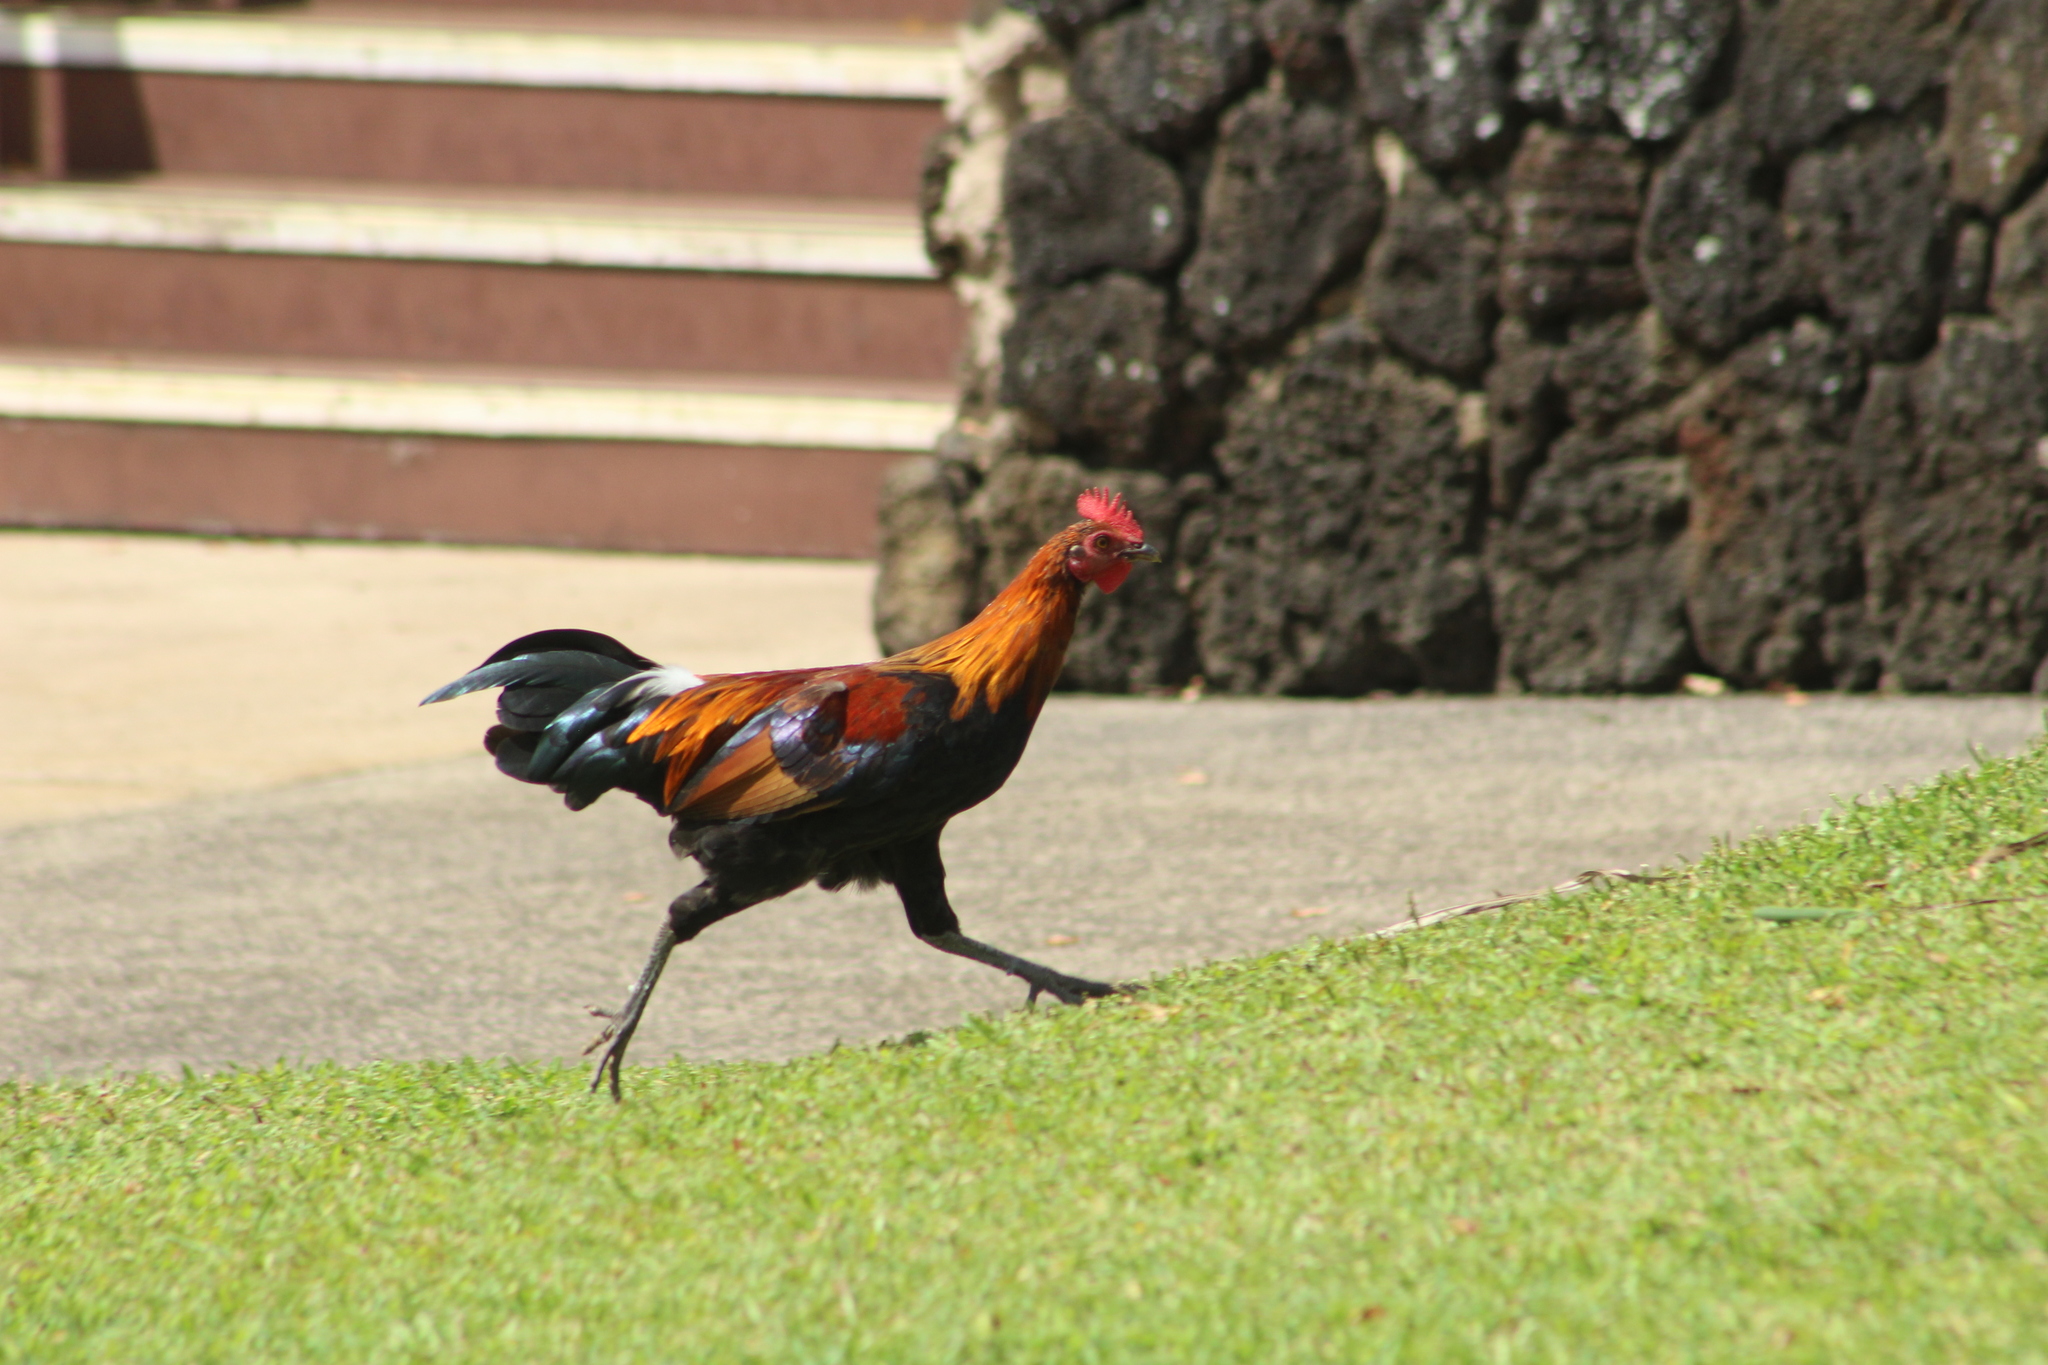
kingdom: Animalia
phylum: Chordata
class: Aves
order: Galliformes
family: Phasianidae
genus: Gallus
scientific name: Gallus gallus
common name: Red junglefowl
